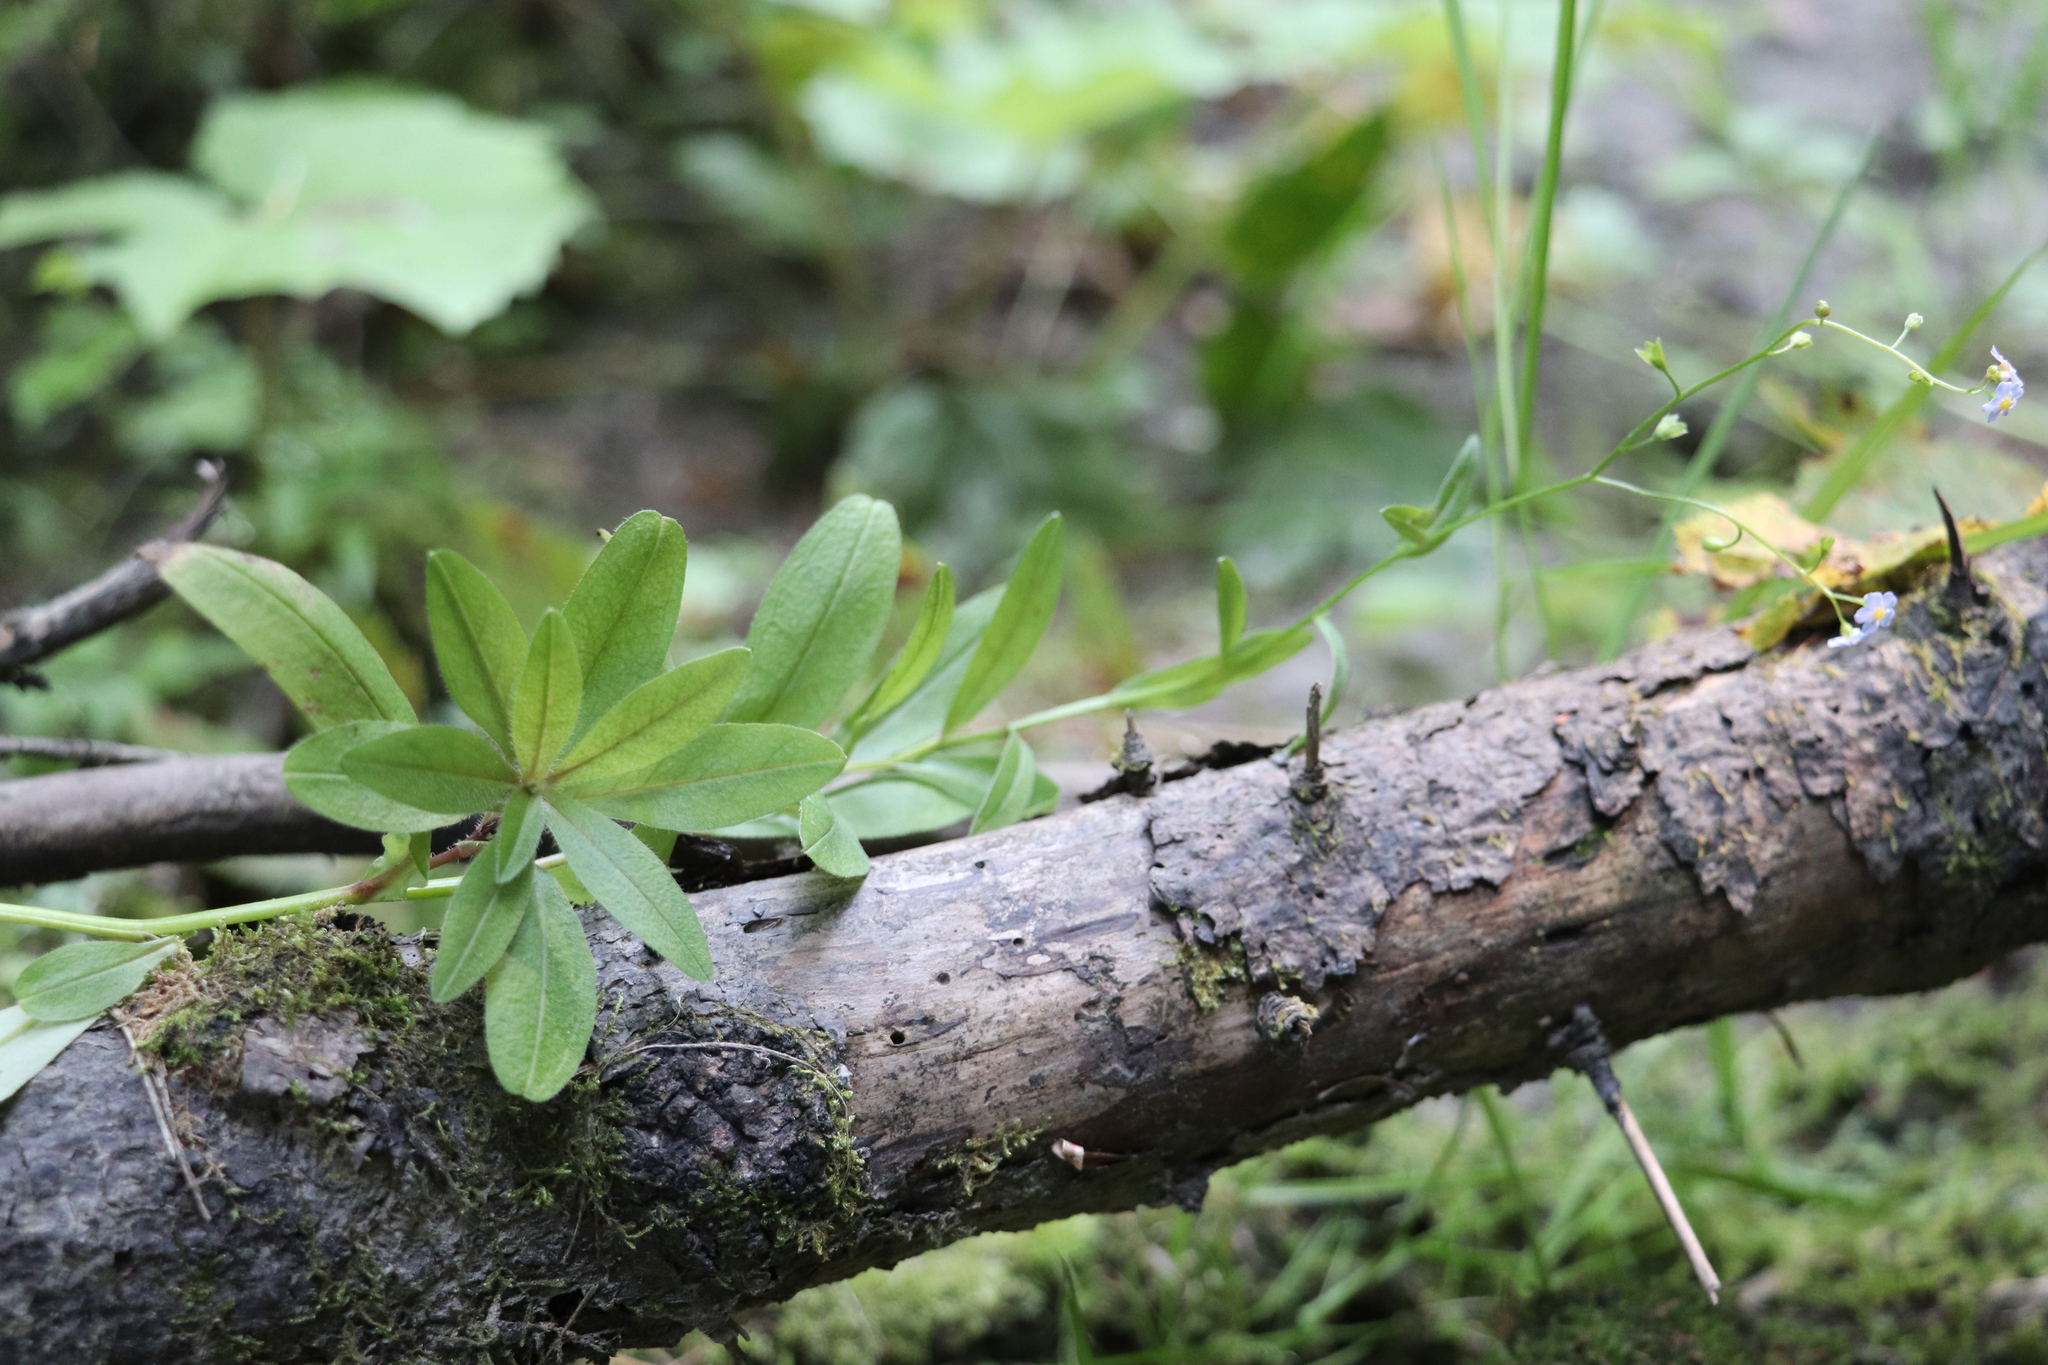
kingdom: Plantae
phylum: Tracheophyta
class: Magnoliopsida
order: Boraginales
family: Boraginaceae
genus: Myosotis
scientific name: Myosotis scorpioides
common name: Water forget-me-not
